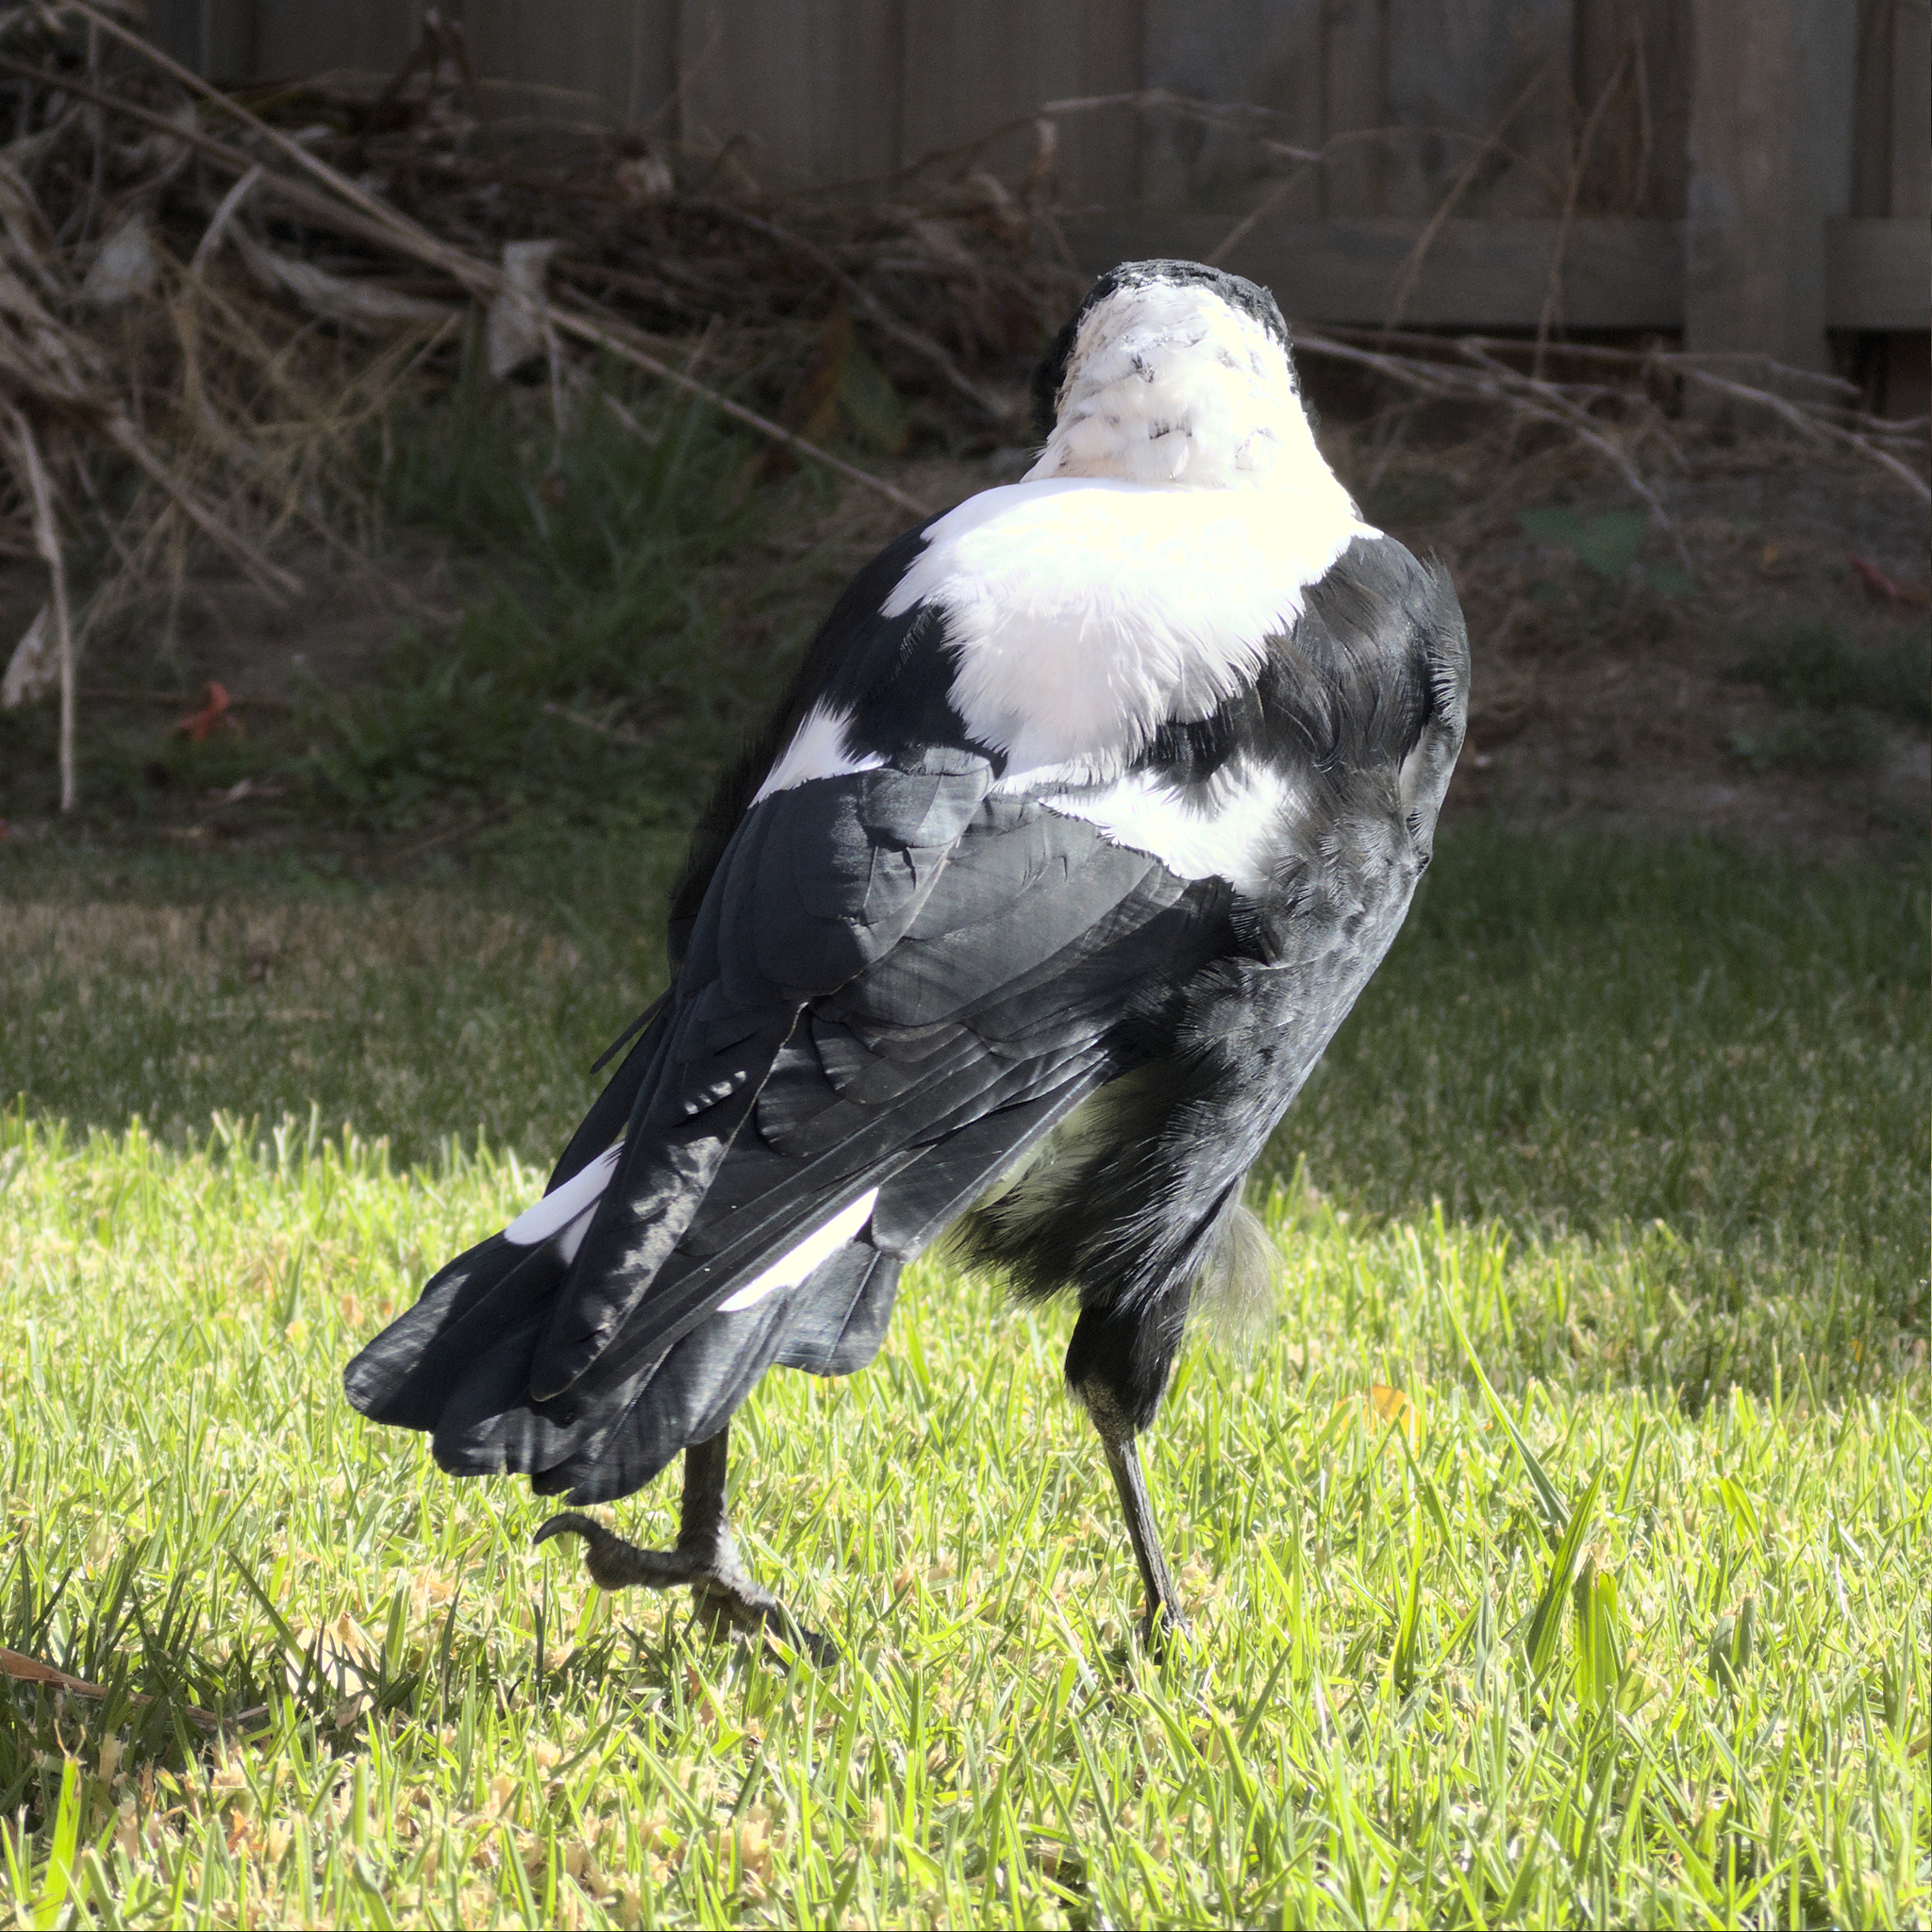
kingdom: Animalia
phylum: Chordata
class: Aves
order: Passeriformes
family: Cracticidae
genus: Gymnorhina
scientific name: Gymnorhina tibicen
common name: Australian magpie
